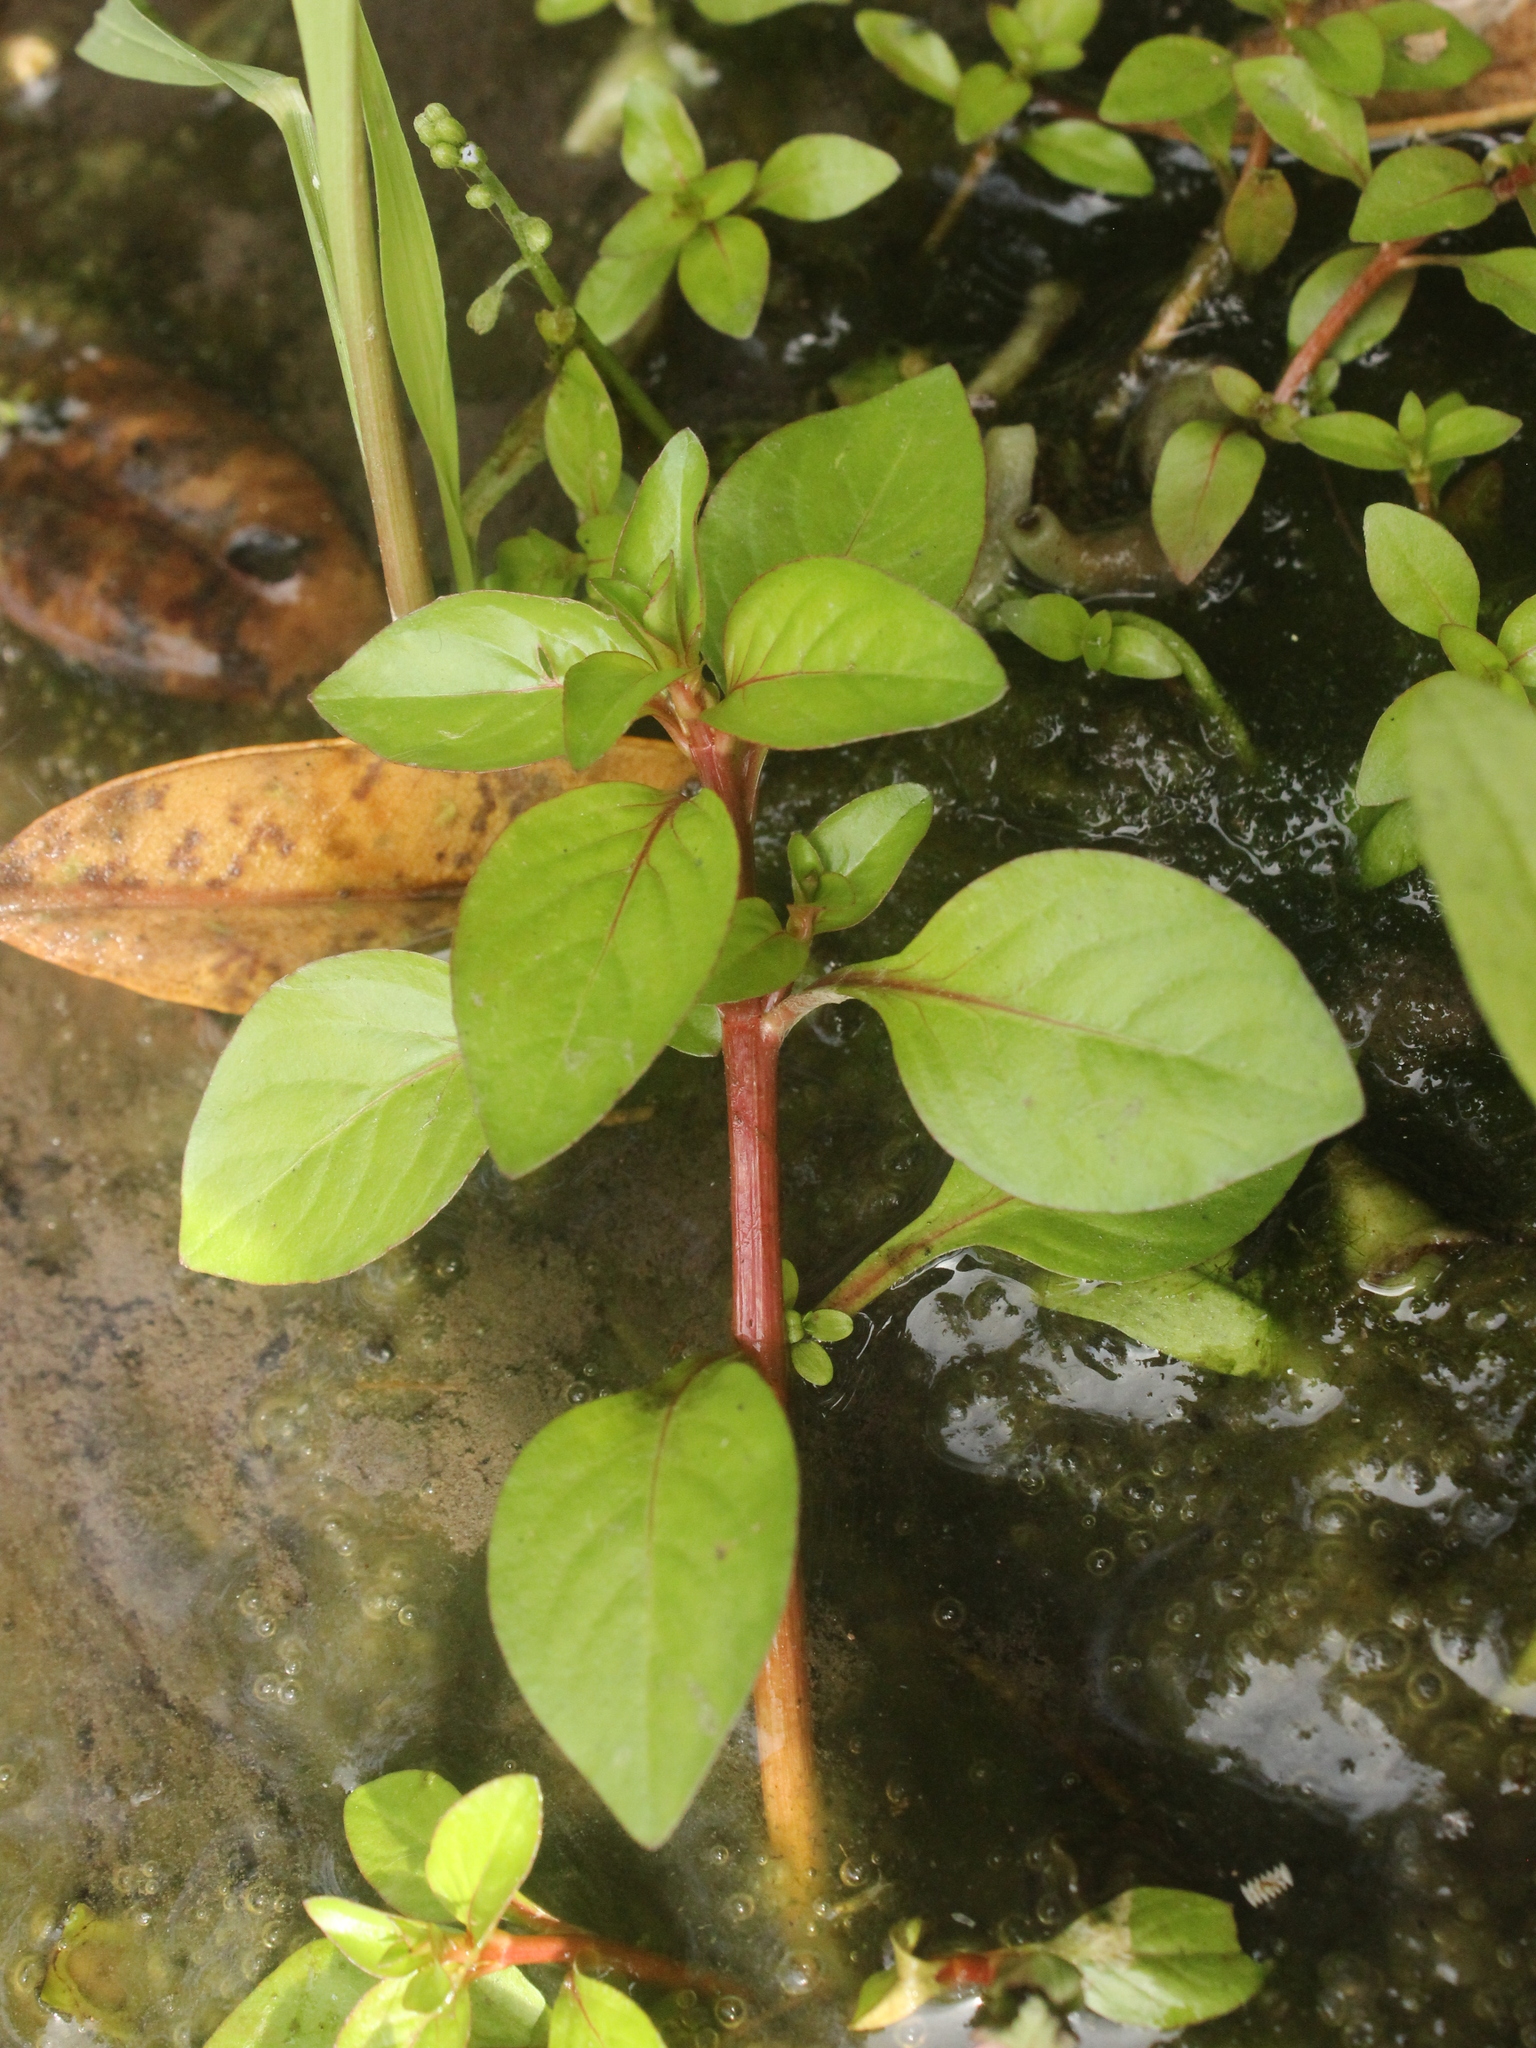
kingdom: Plantae
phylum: Tracheophyta
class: Magnoliopsida
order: Myrtales
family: Onagraceae
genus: Ludwigia
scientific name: Ludwigia palustris
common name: Hampshire-purslane
